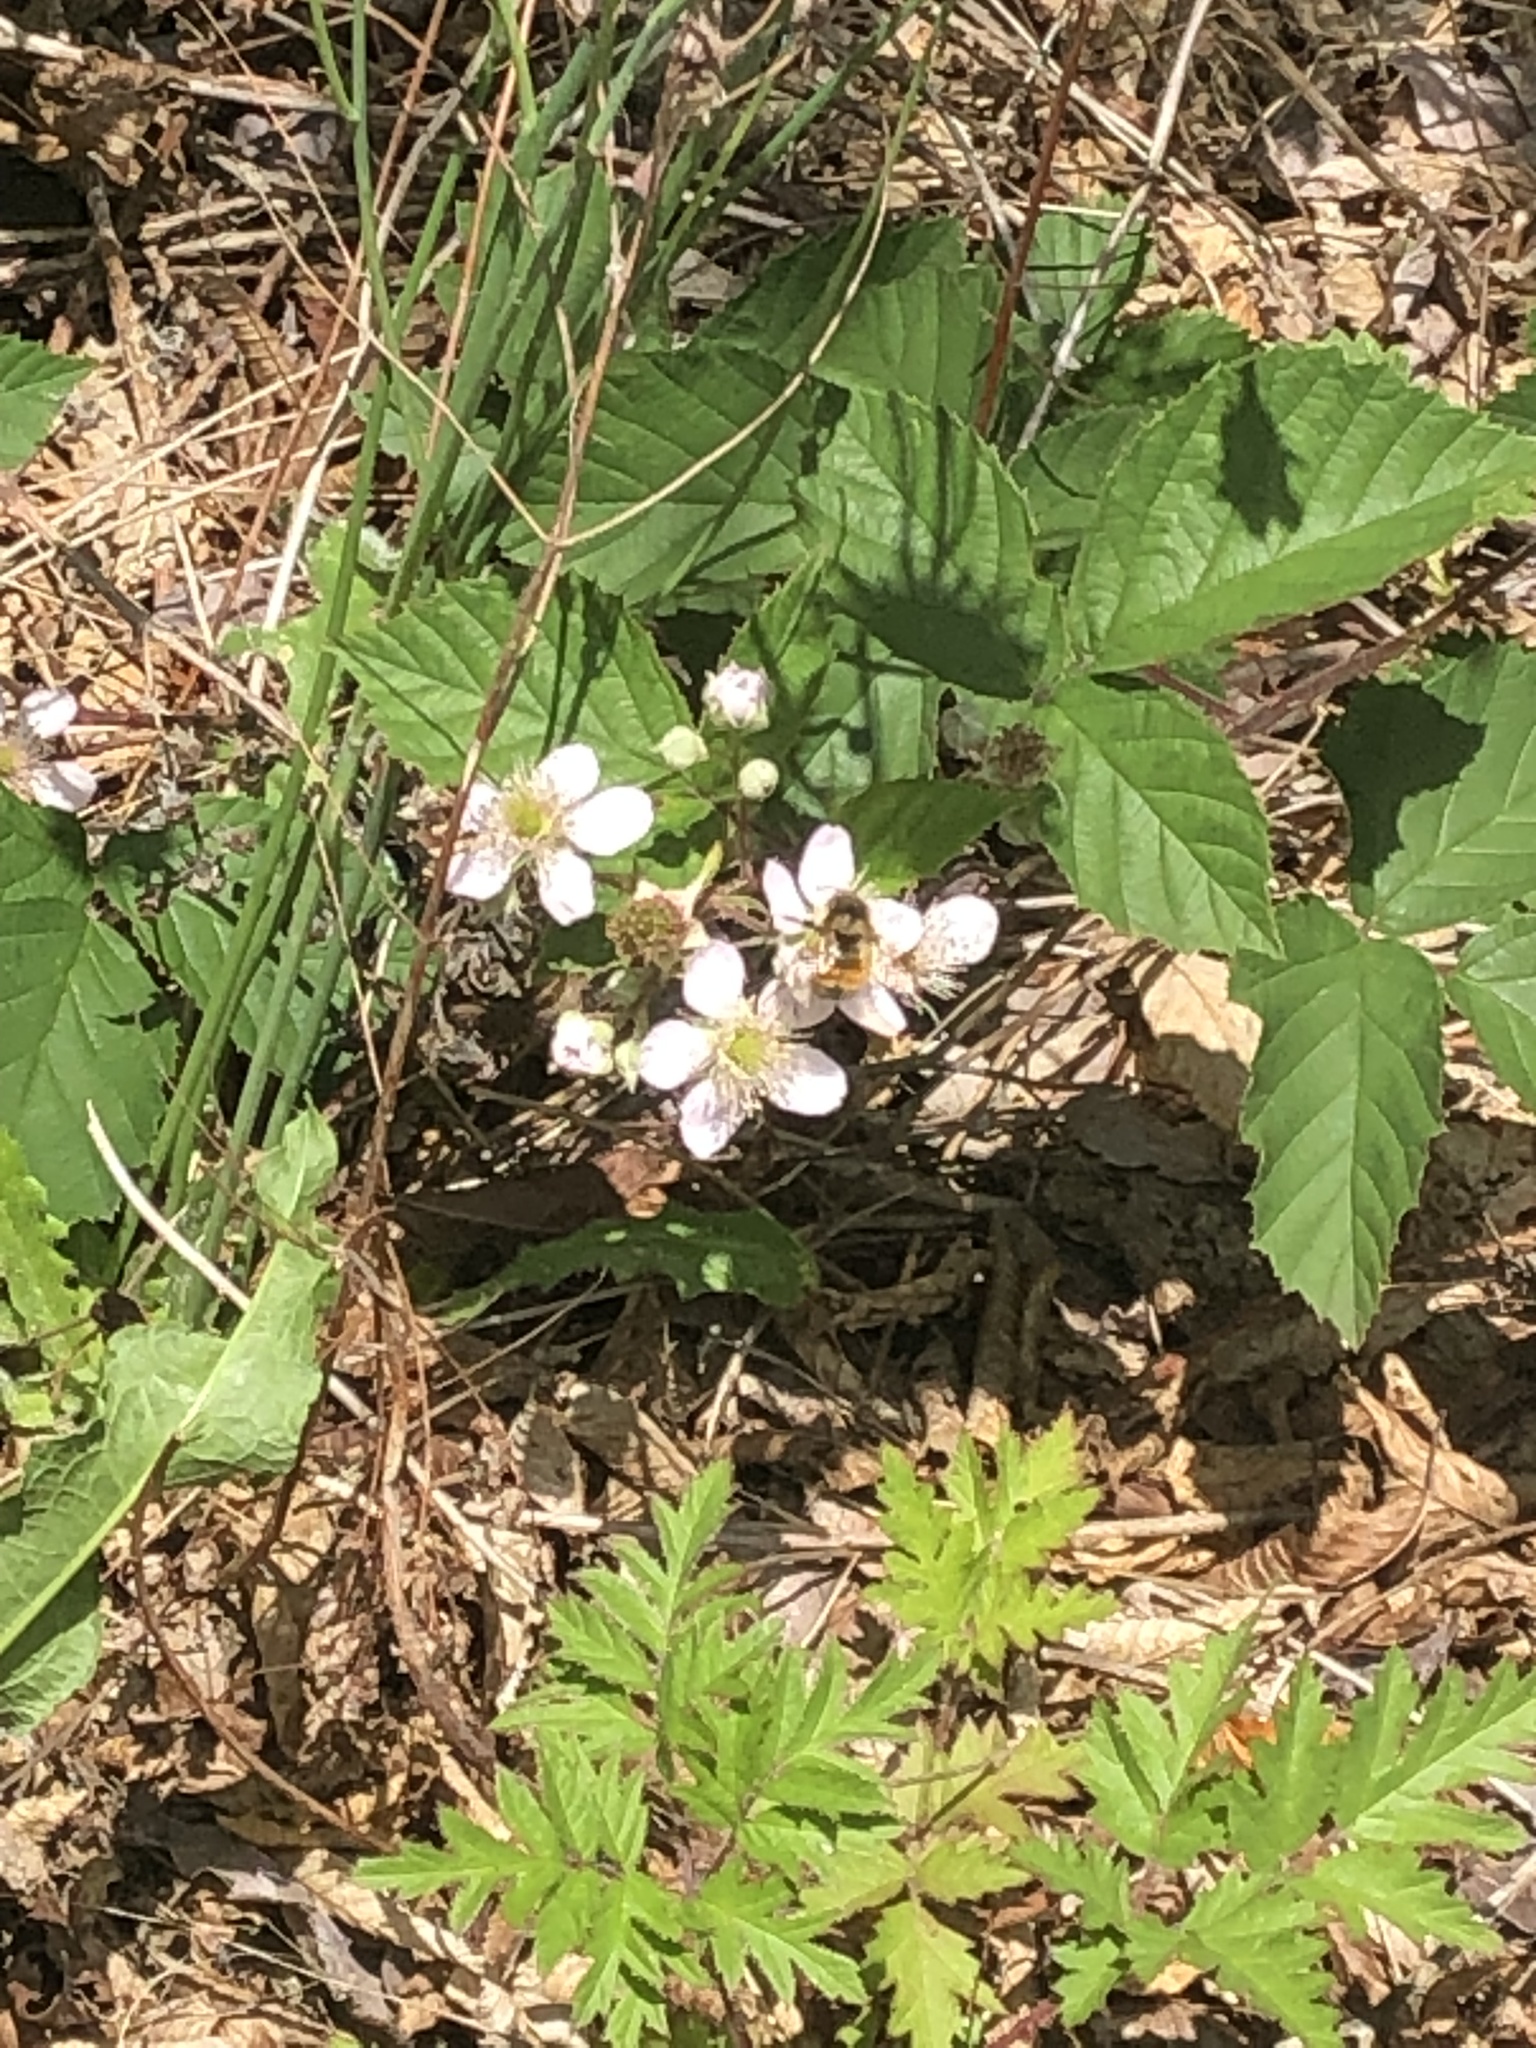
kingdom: Animalia
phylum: Arthropoda
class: Insecta
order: Hymenoptera
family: Apidae
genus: Bombus
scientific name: Bombus melanopygus
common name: Black tail bumble bee
